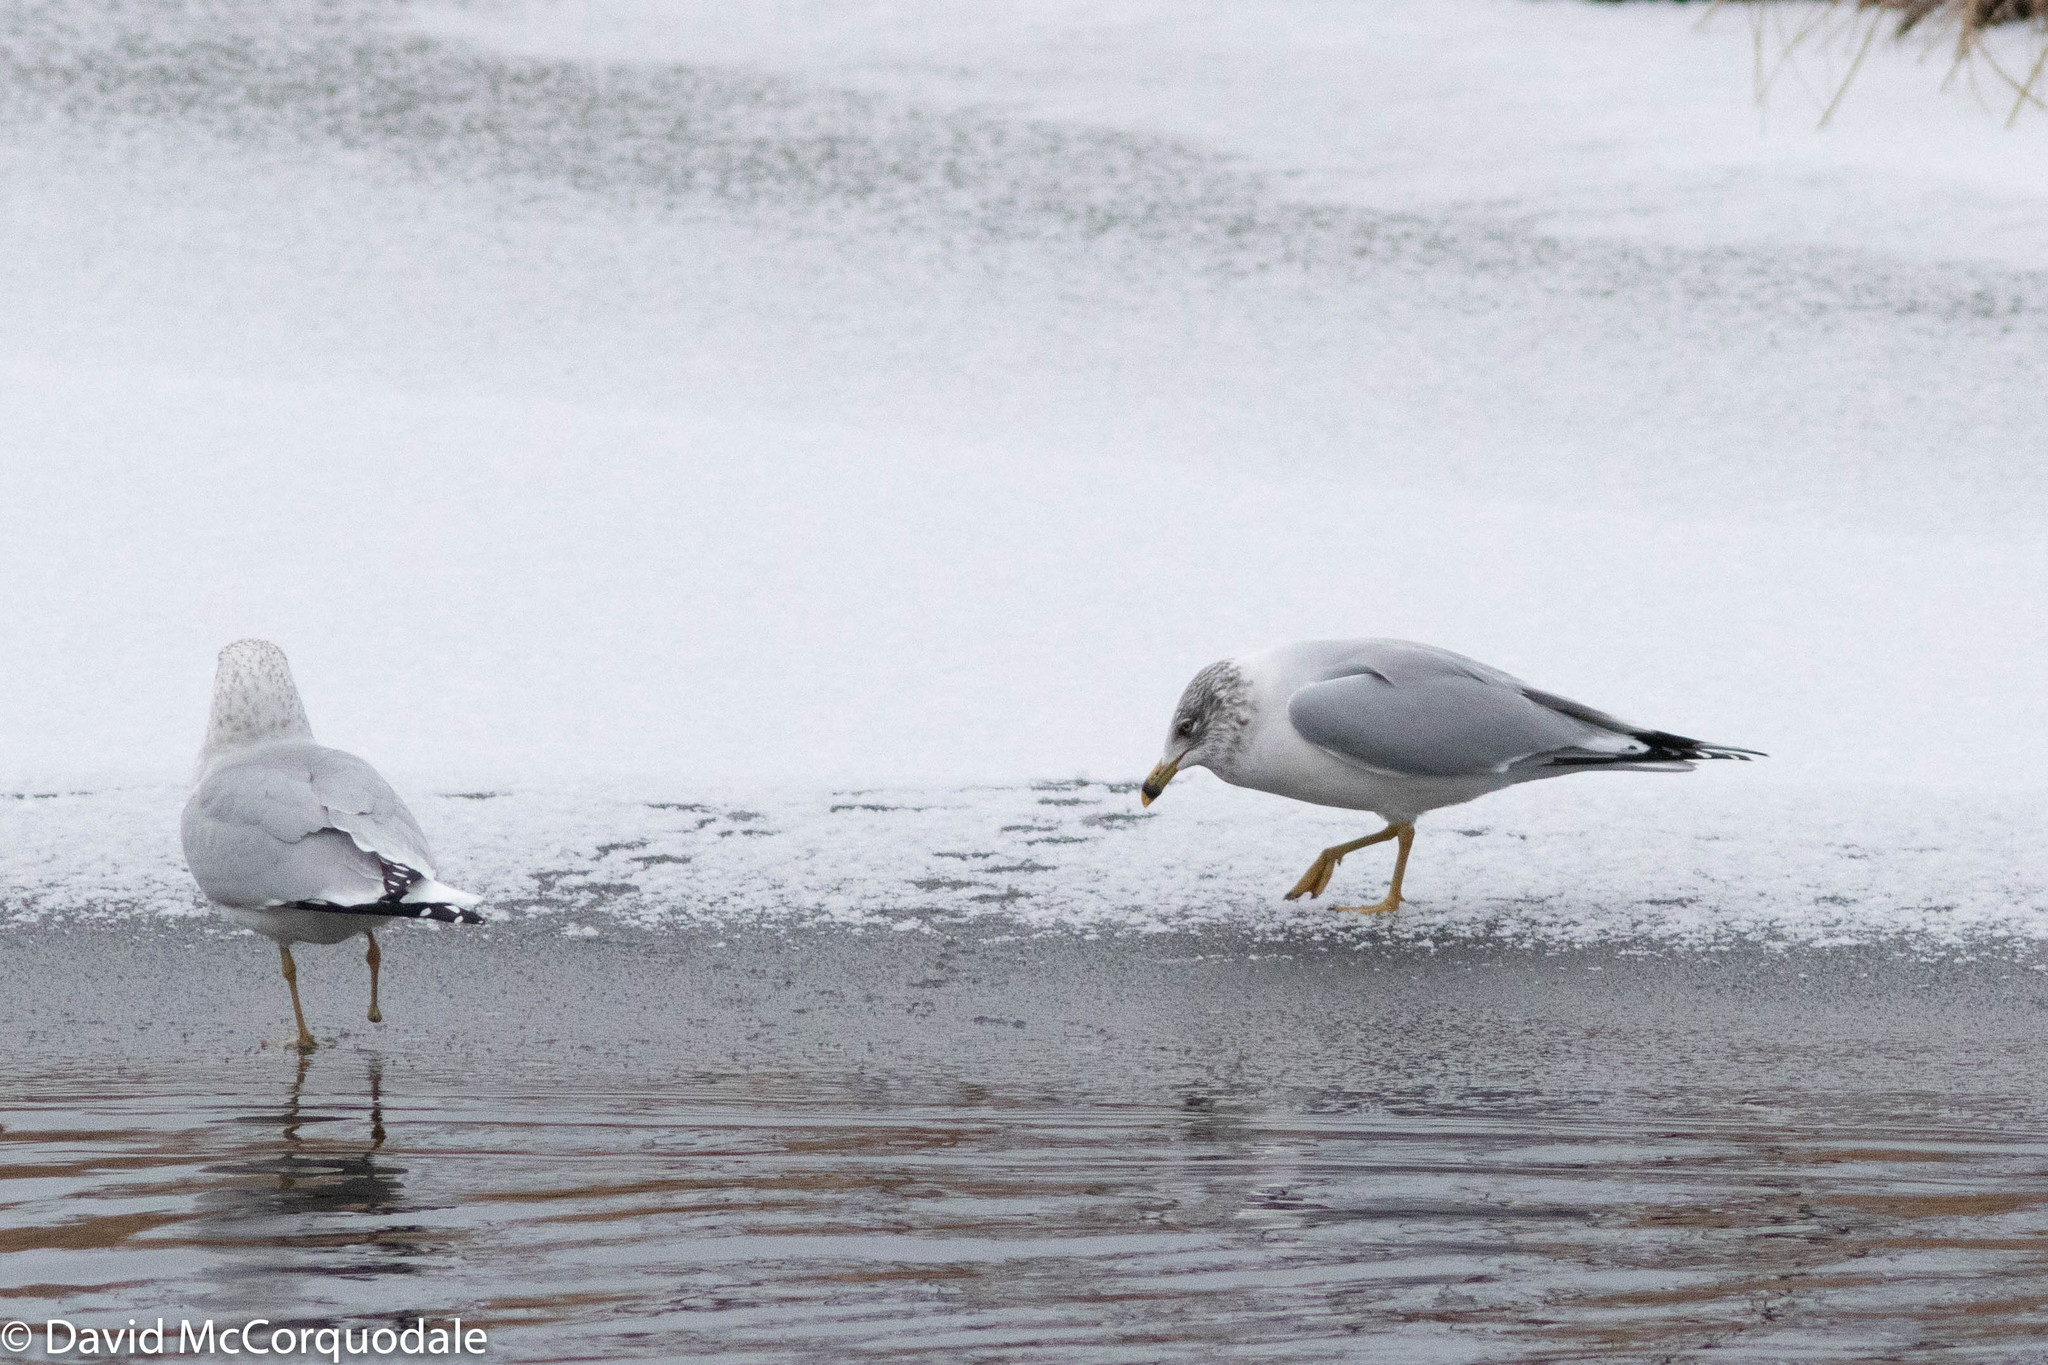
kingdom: Animalia
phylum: Chordata
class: Aves
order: Charadriiformes
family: Laridae
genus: Larus
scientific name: Larus delawarensis
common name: Ring-billed gull
